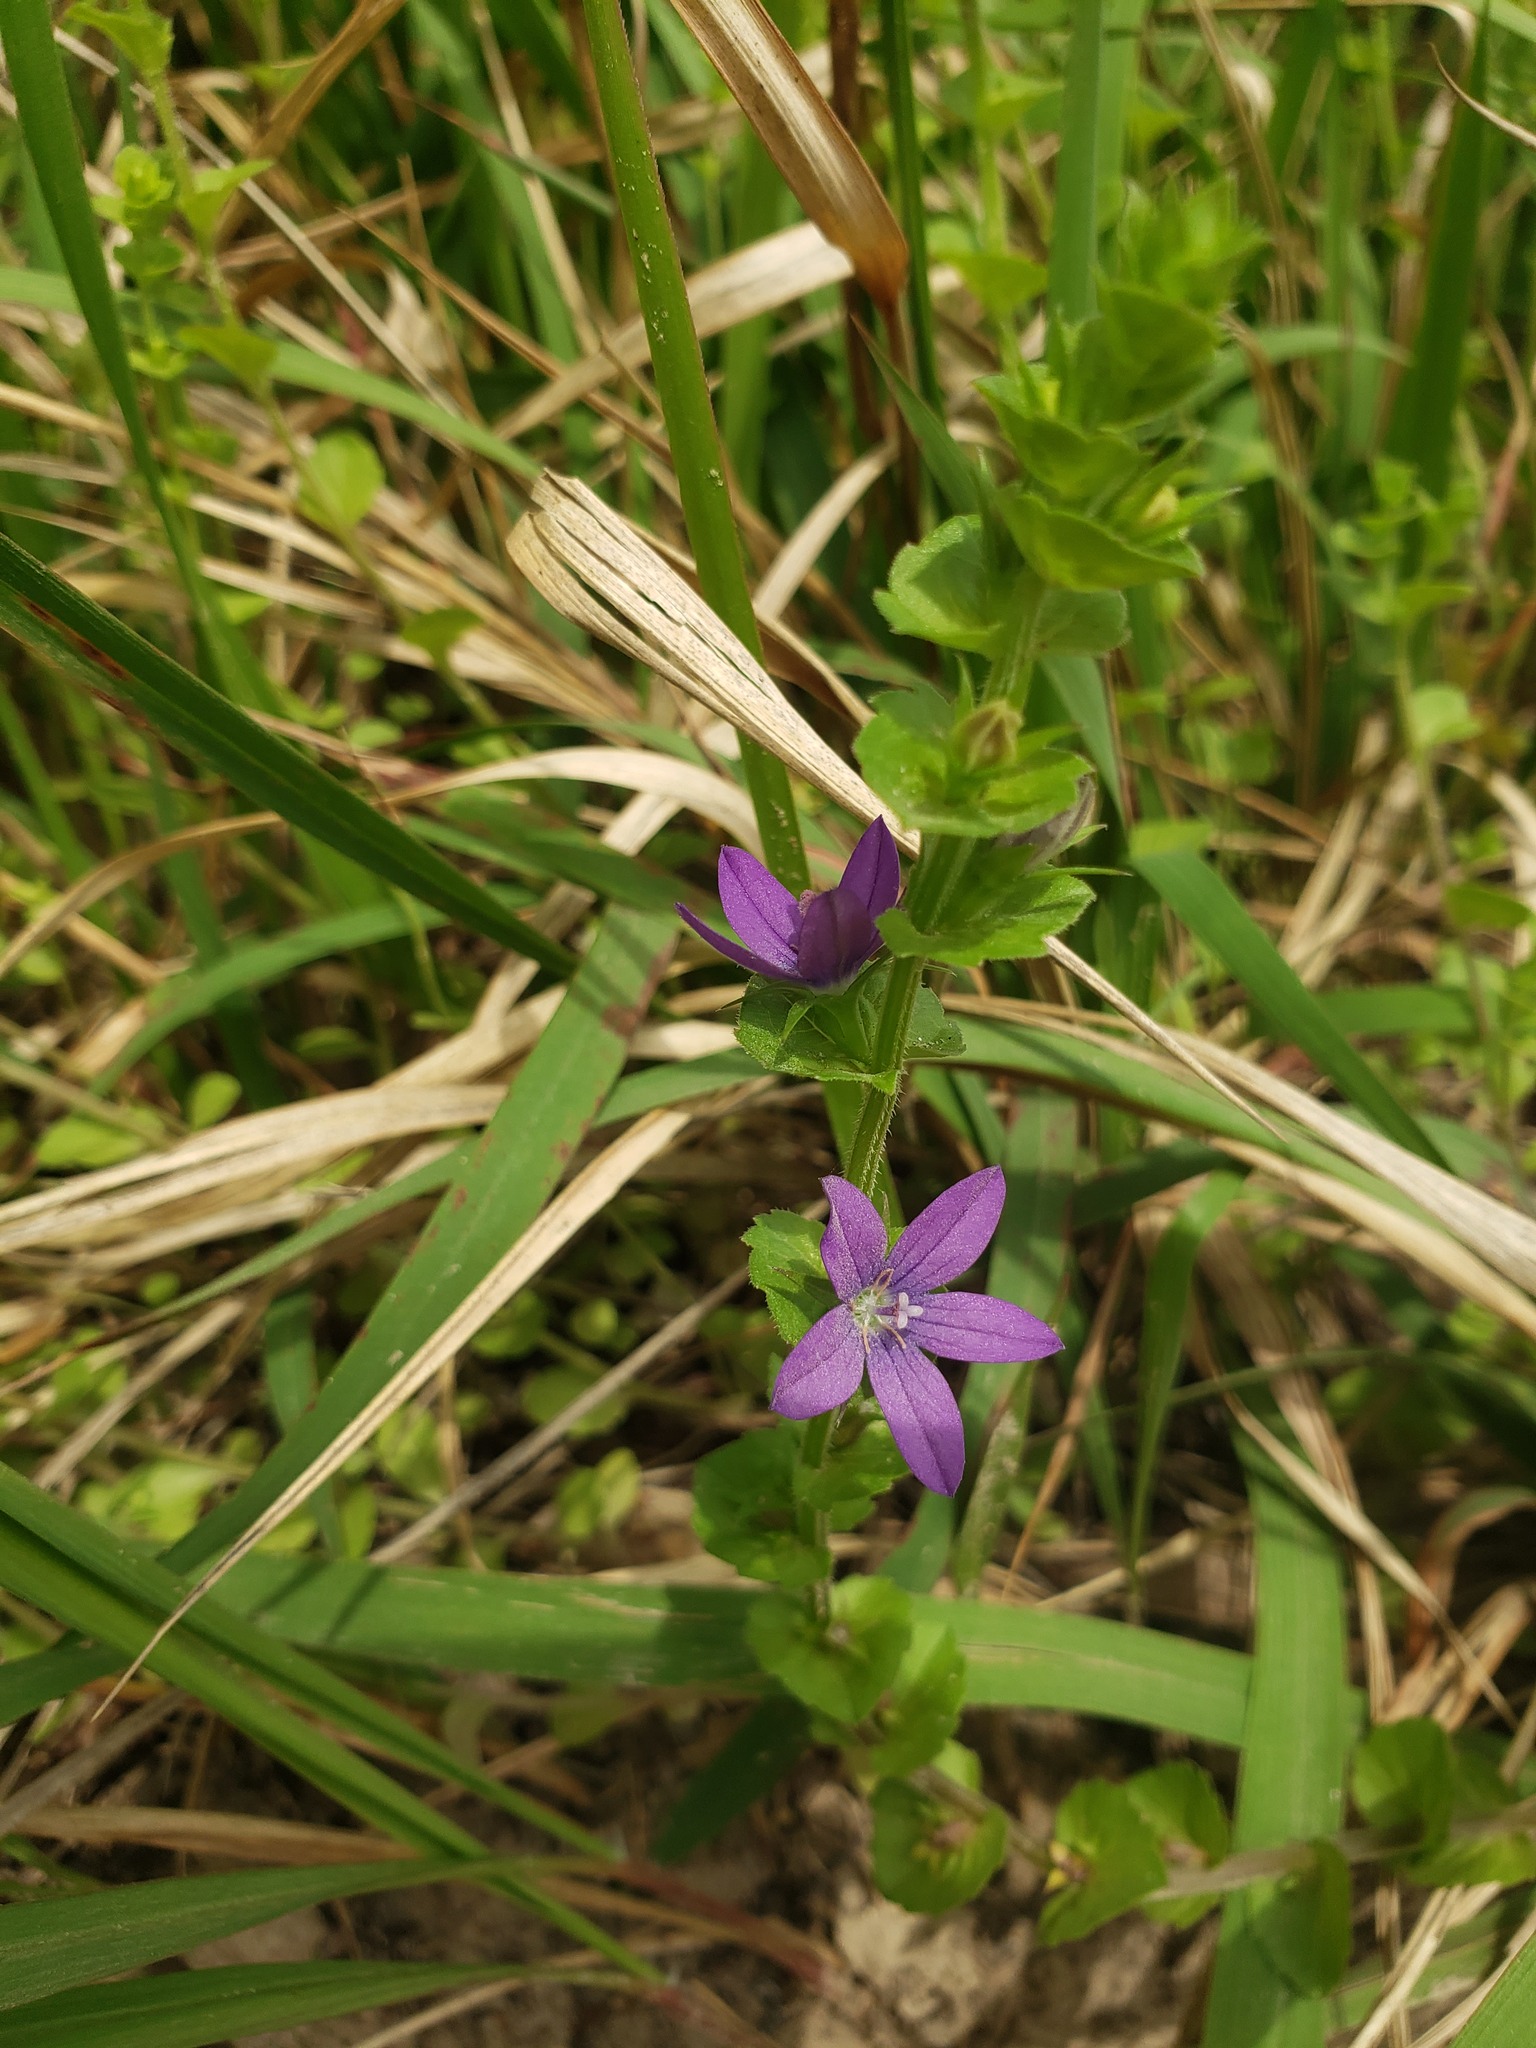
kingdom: Plantae
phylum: Tracheophyta
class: Magnoliopsida
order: Asterales
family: Campanulaceae
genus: Triodanis
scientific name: Triodanis perfoliata
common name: Clasping venus' looking-glass
